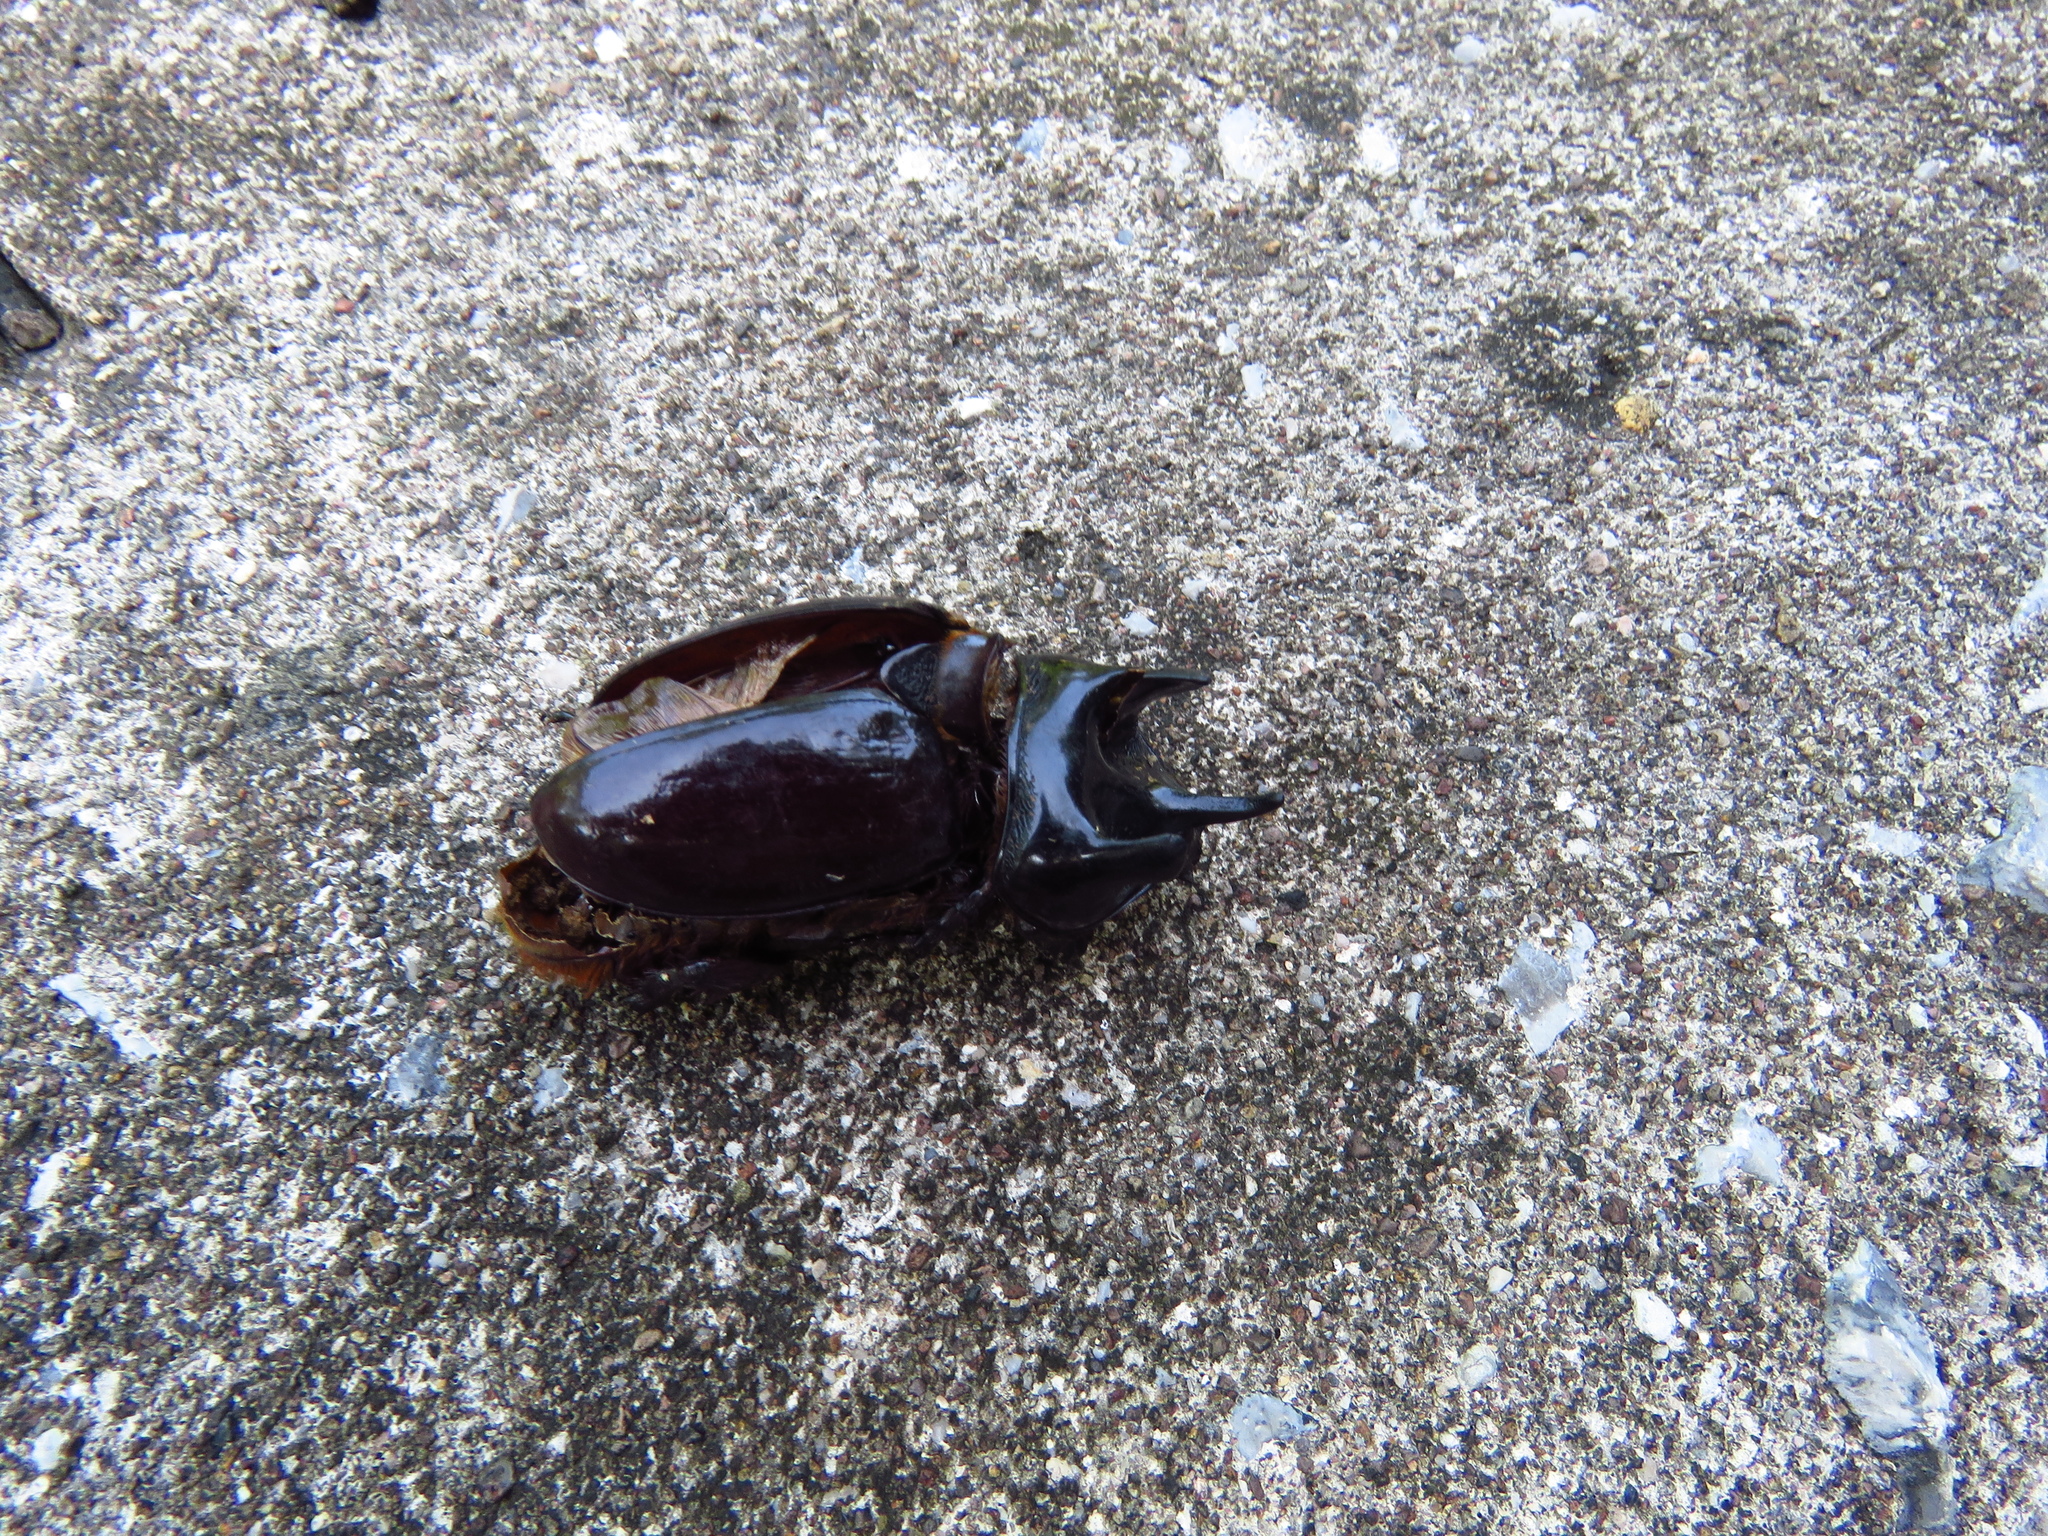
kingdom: Animalia
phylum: Arthropoda
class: Insecta
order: Coleoptera
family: Scarabaeidae
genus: Strategus
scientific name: Strategus aloeus
